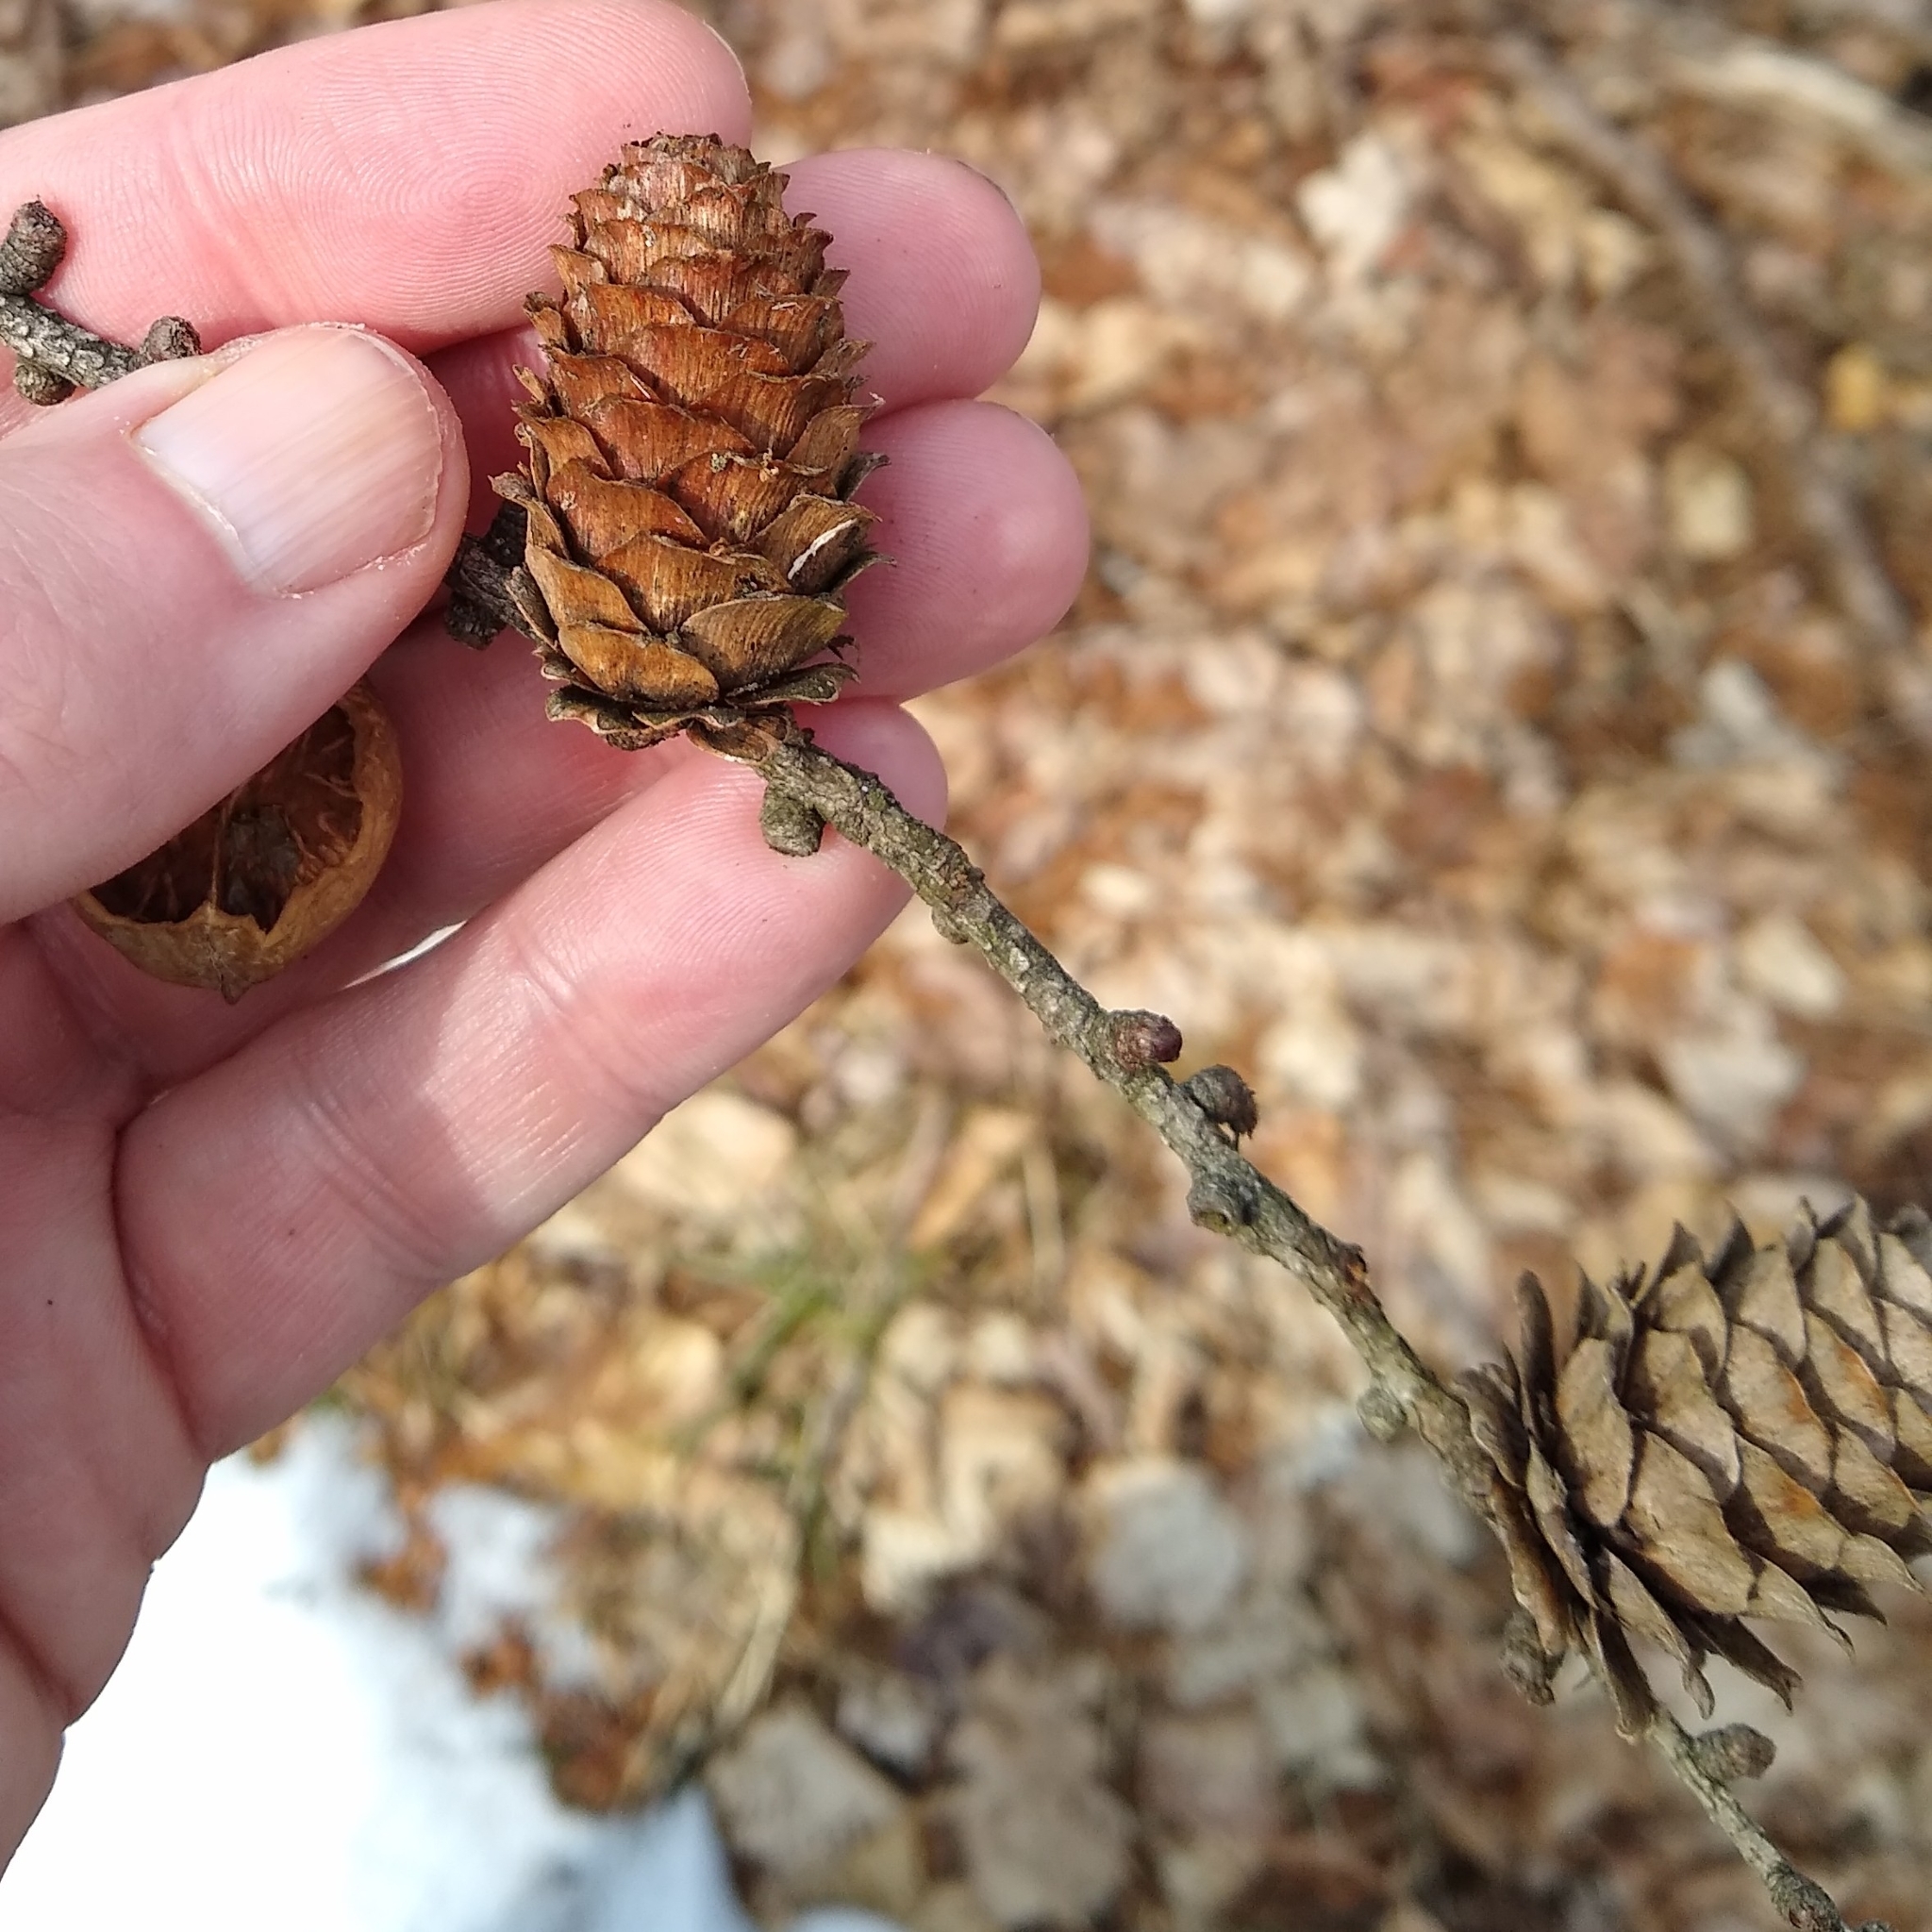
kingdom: Plantae
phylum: Tracheophyta
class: Pinopsida
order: Pinales
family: Pinaceae
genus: Larix
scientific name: Larix decidua
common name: European larch
